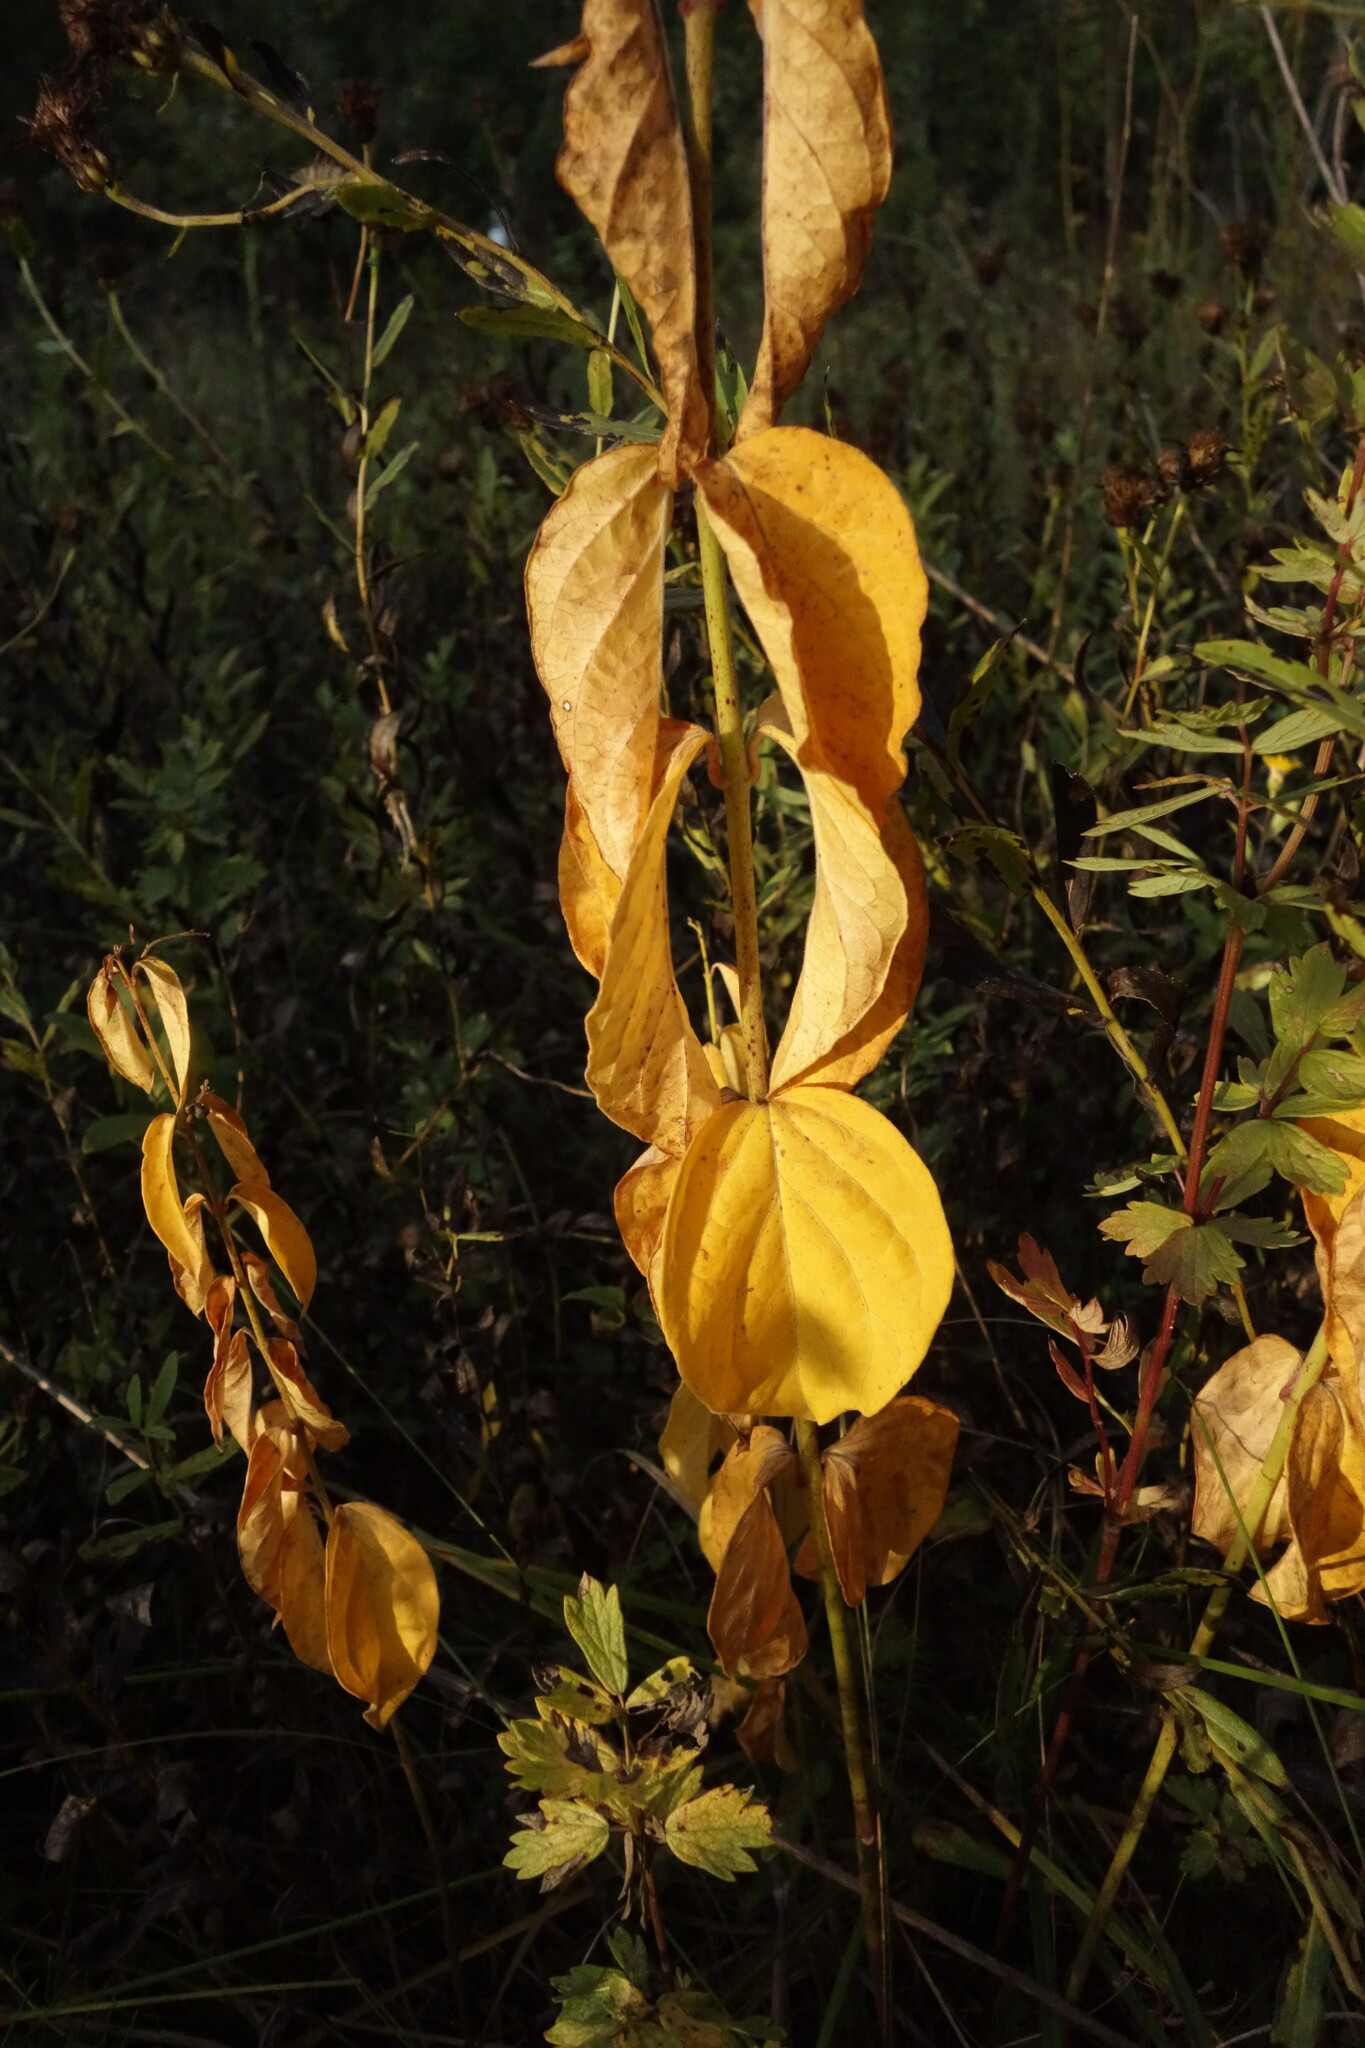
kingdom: Plantae
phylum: Tracheophyta
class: Magnoliopsida
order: Gentianales
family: Apocynaceae
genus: Vincetoxicum
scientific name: Vincetoxicum hirundinaria
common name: White swallowwort
